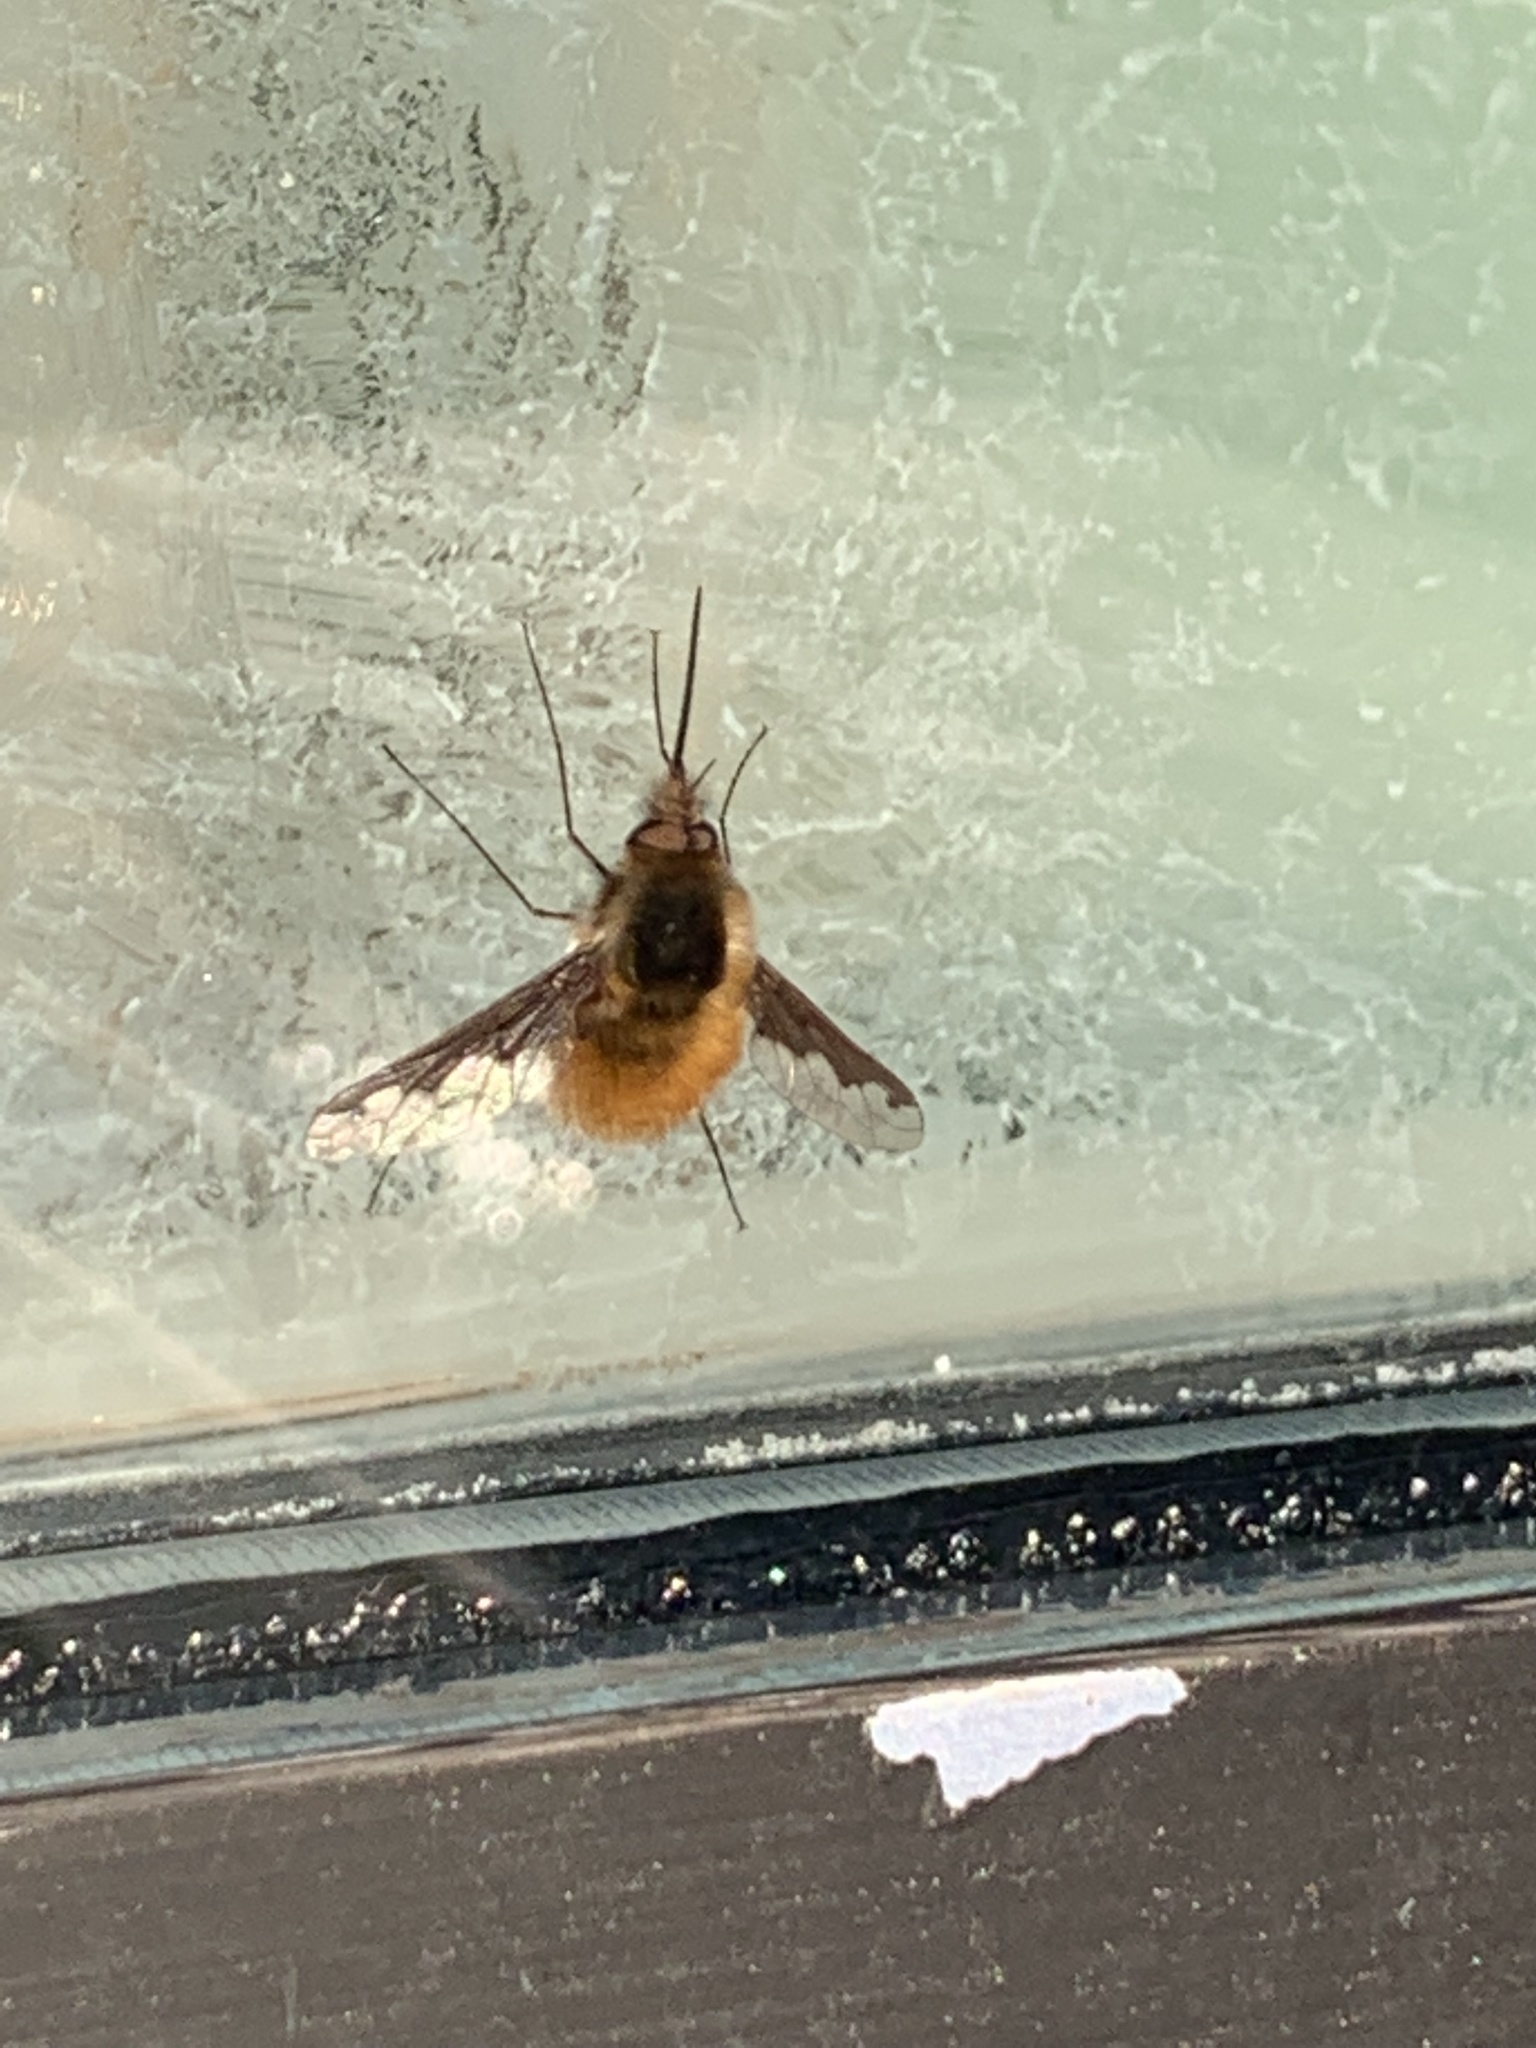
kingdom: Animalia
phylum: Arthropoda
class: Insecta
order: Diptera
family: Bombyliidae
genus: Bombylius
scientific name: Bombylius major
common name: Bee fly
